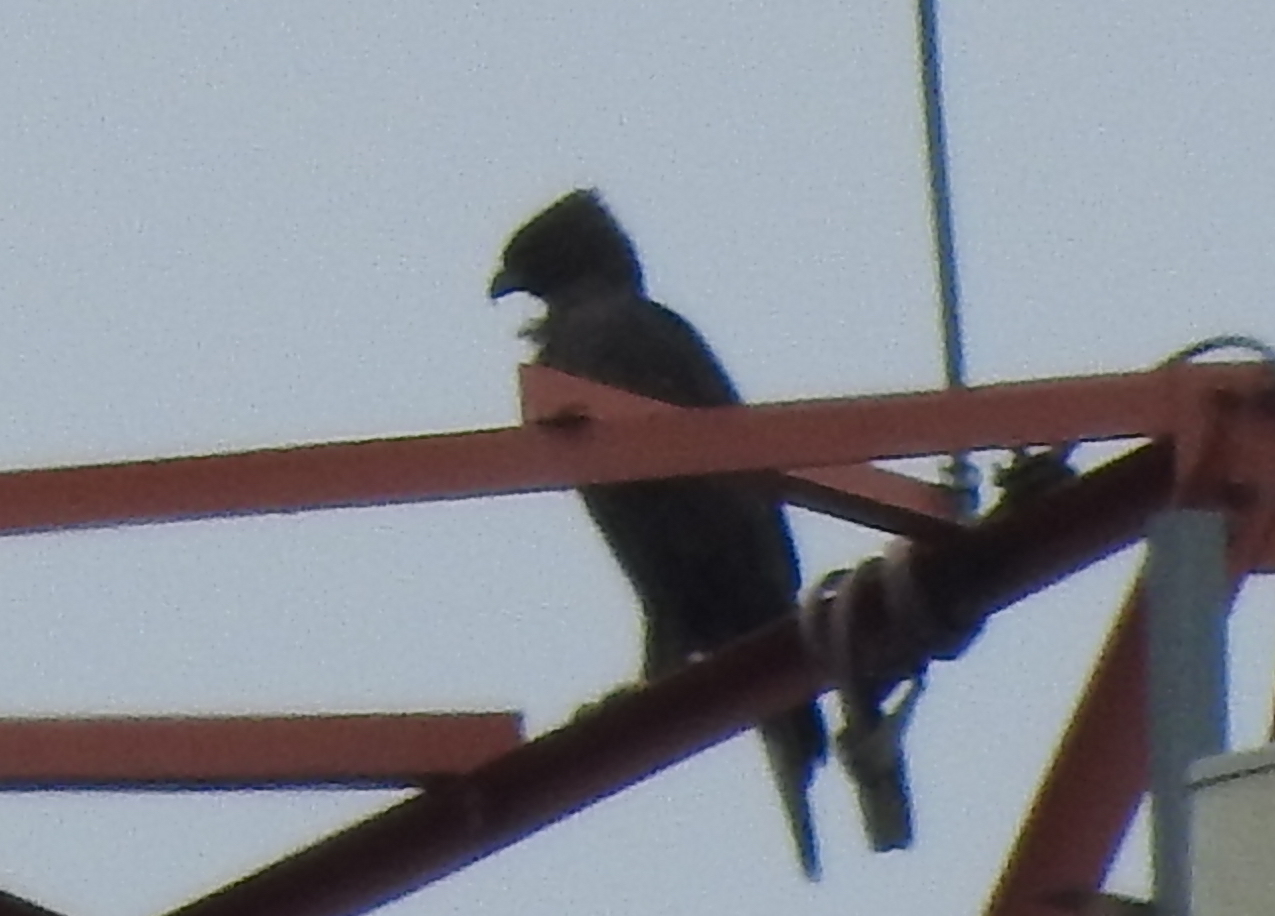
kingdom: Animalia
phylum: Chordata
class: Aves
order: Accipitriformes
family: Accipitridae
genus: Nisaetus
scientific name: Nisaetus cirrhatus
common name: Changeable hawk-eagle
